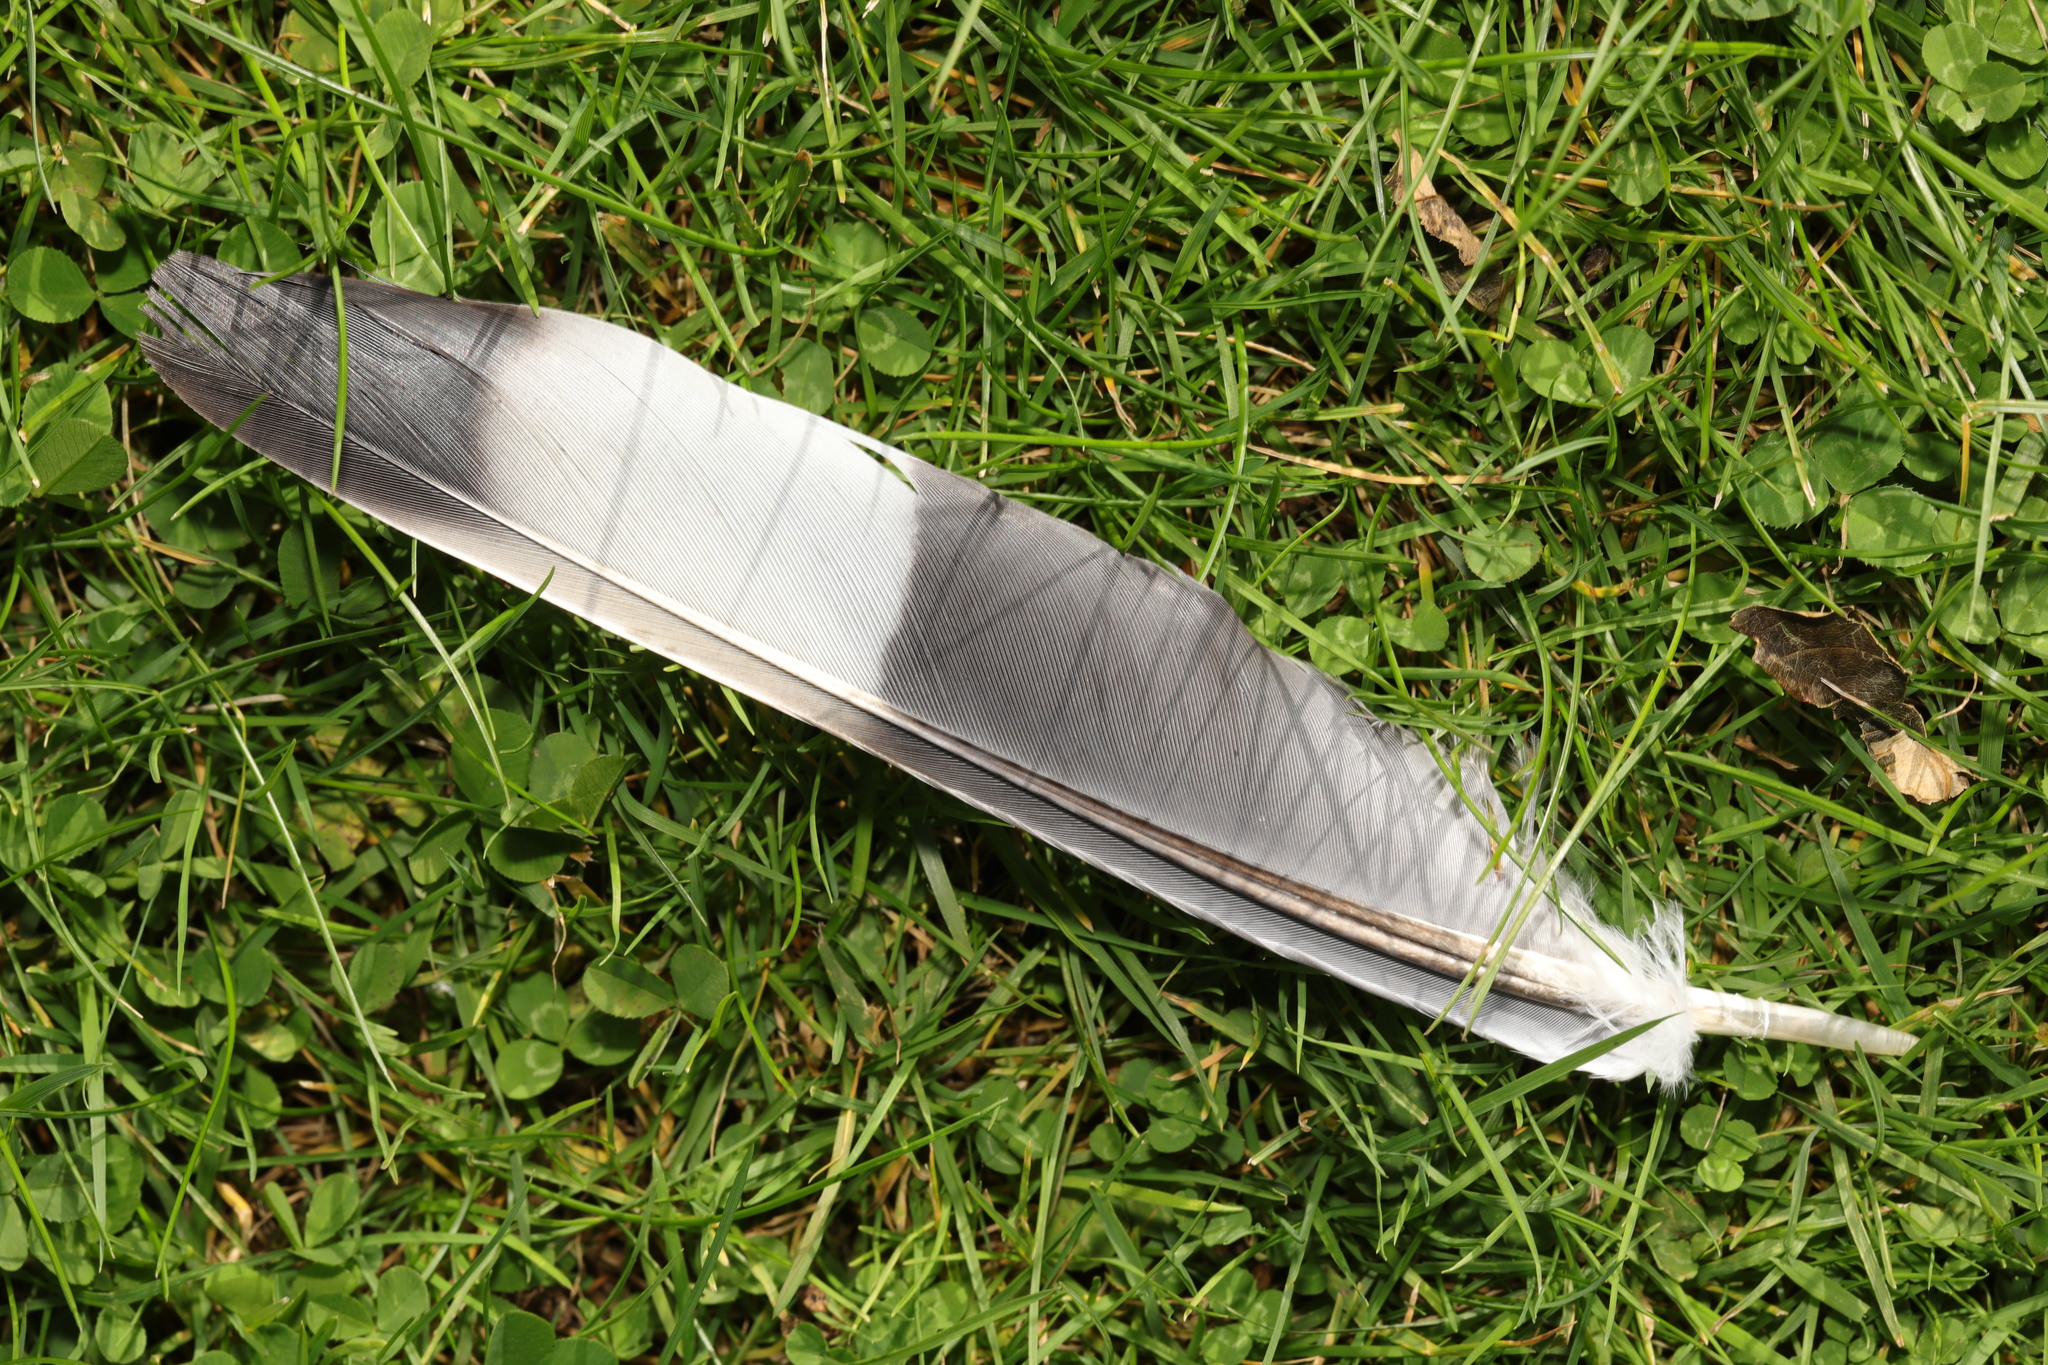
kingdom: Animalia
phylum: Chordata
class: Aves
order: Columbiformes
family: Columbidae
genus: Columba
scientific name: Columba palumbus
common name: Common wood pigeon
